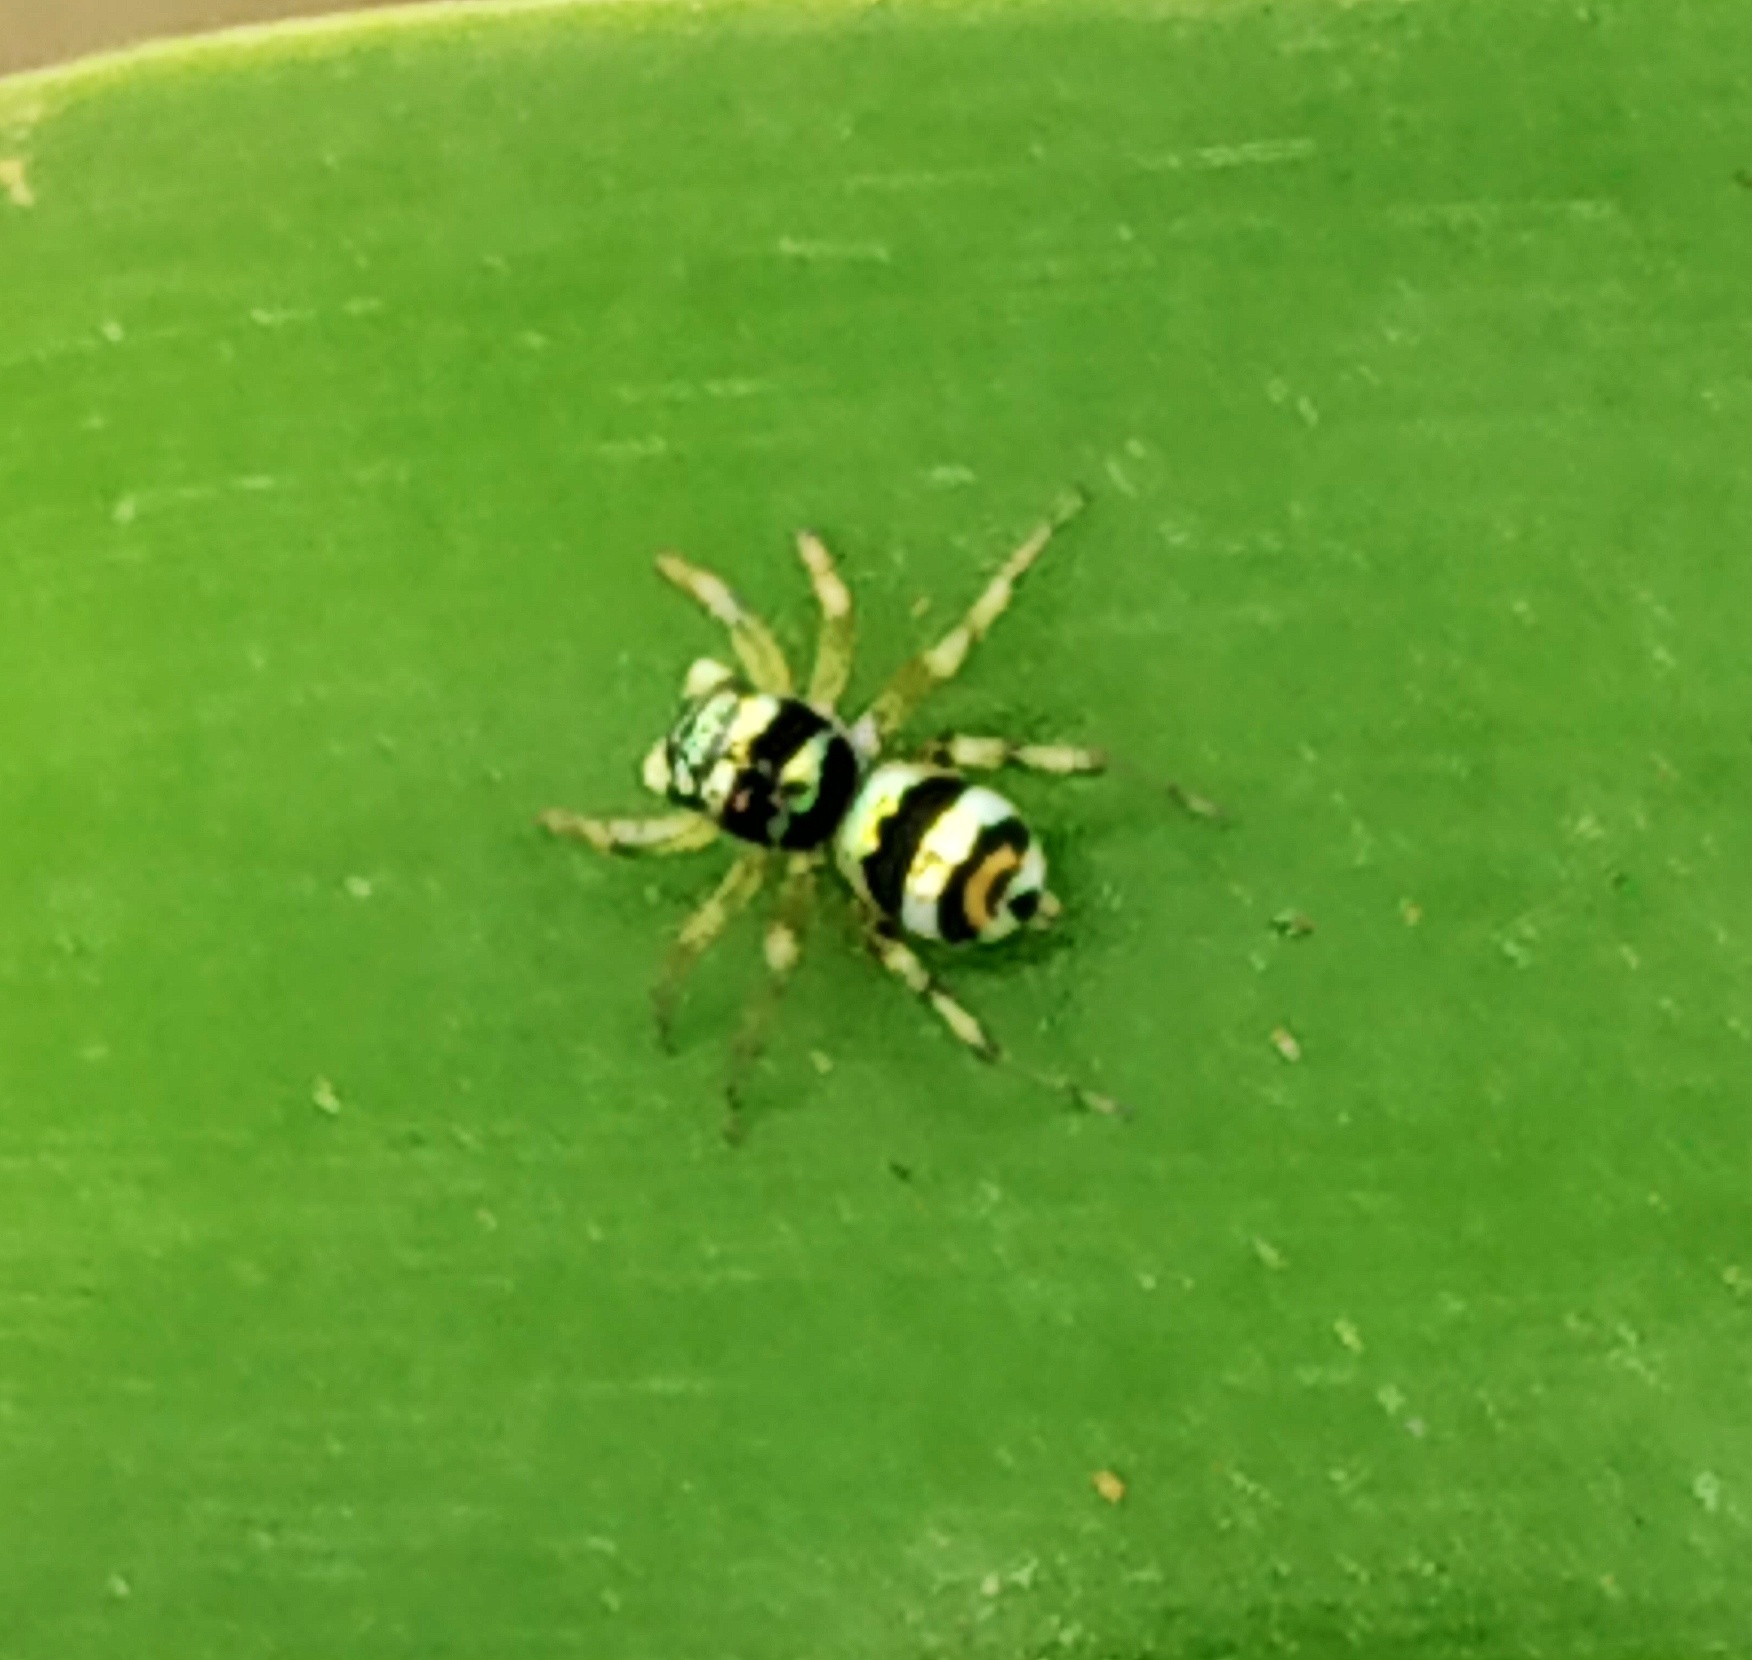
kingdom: Animalia
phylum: Arthropoda
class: Arachnida
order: Araneae
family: Salticidae
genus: Phintella
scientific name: Phintella vittata
